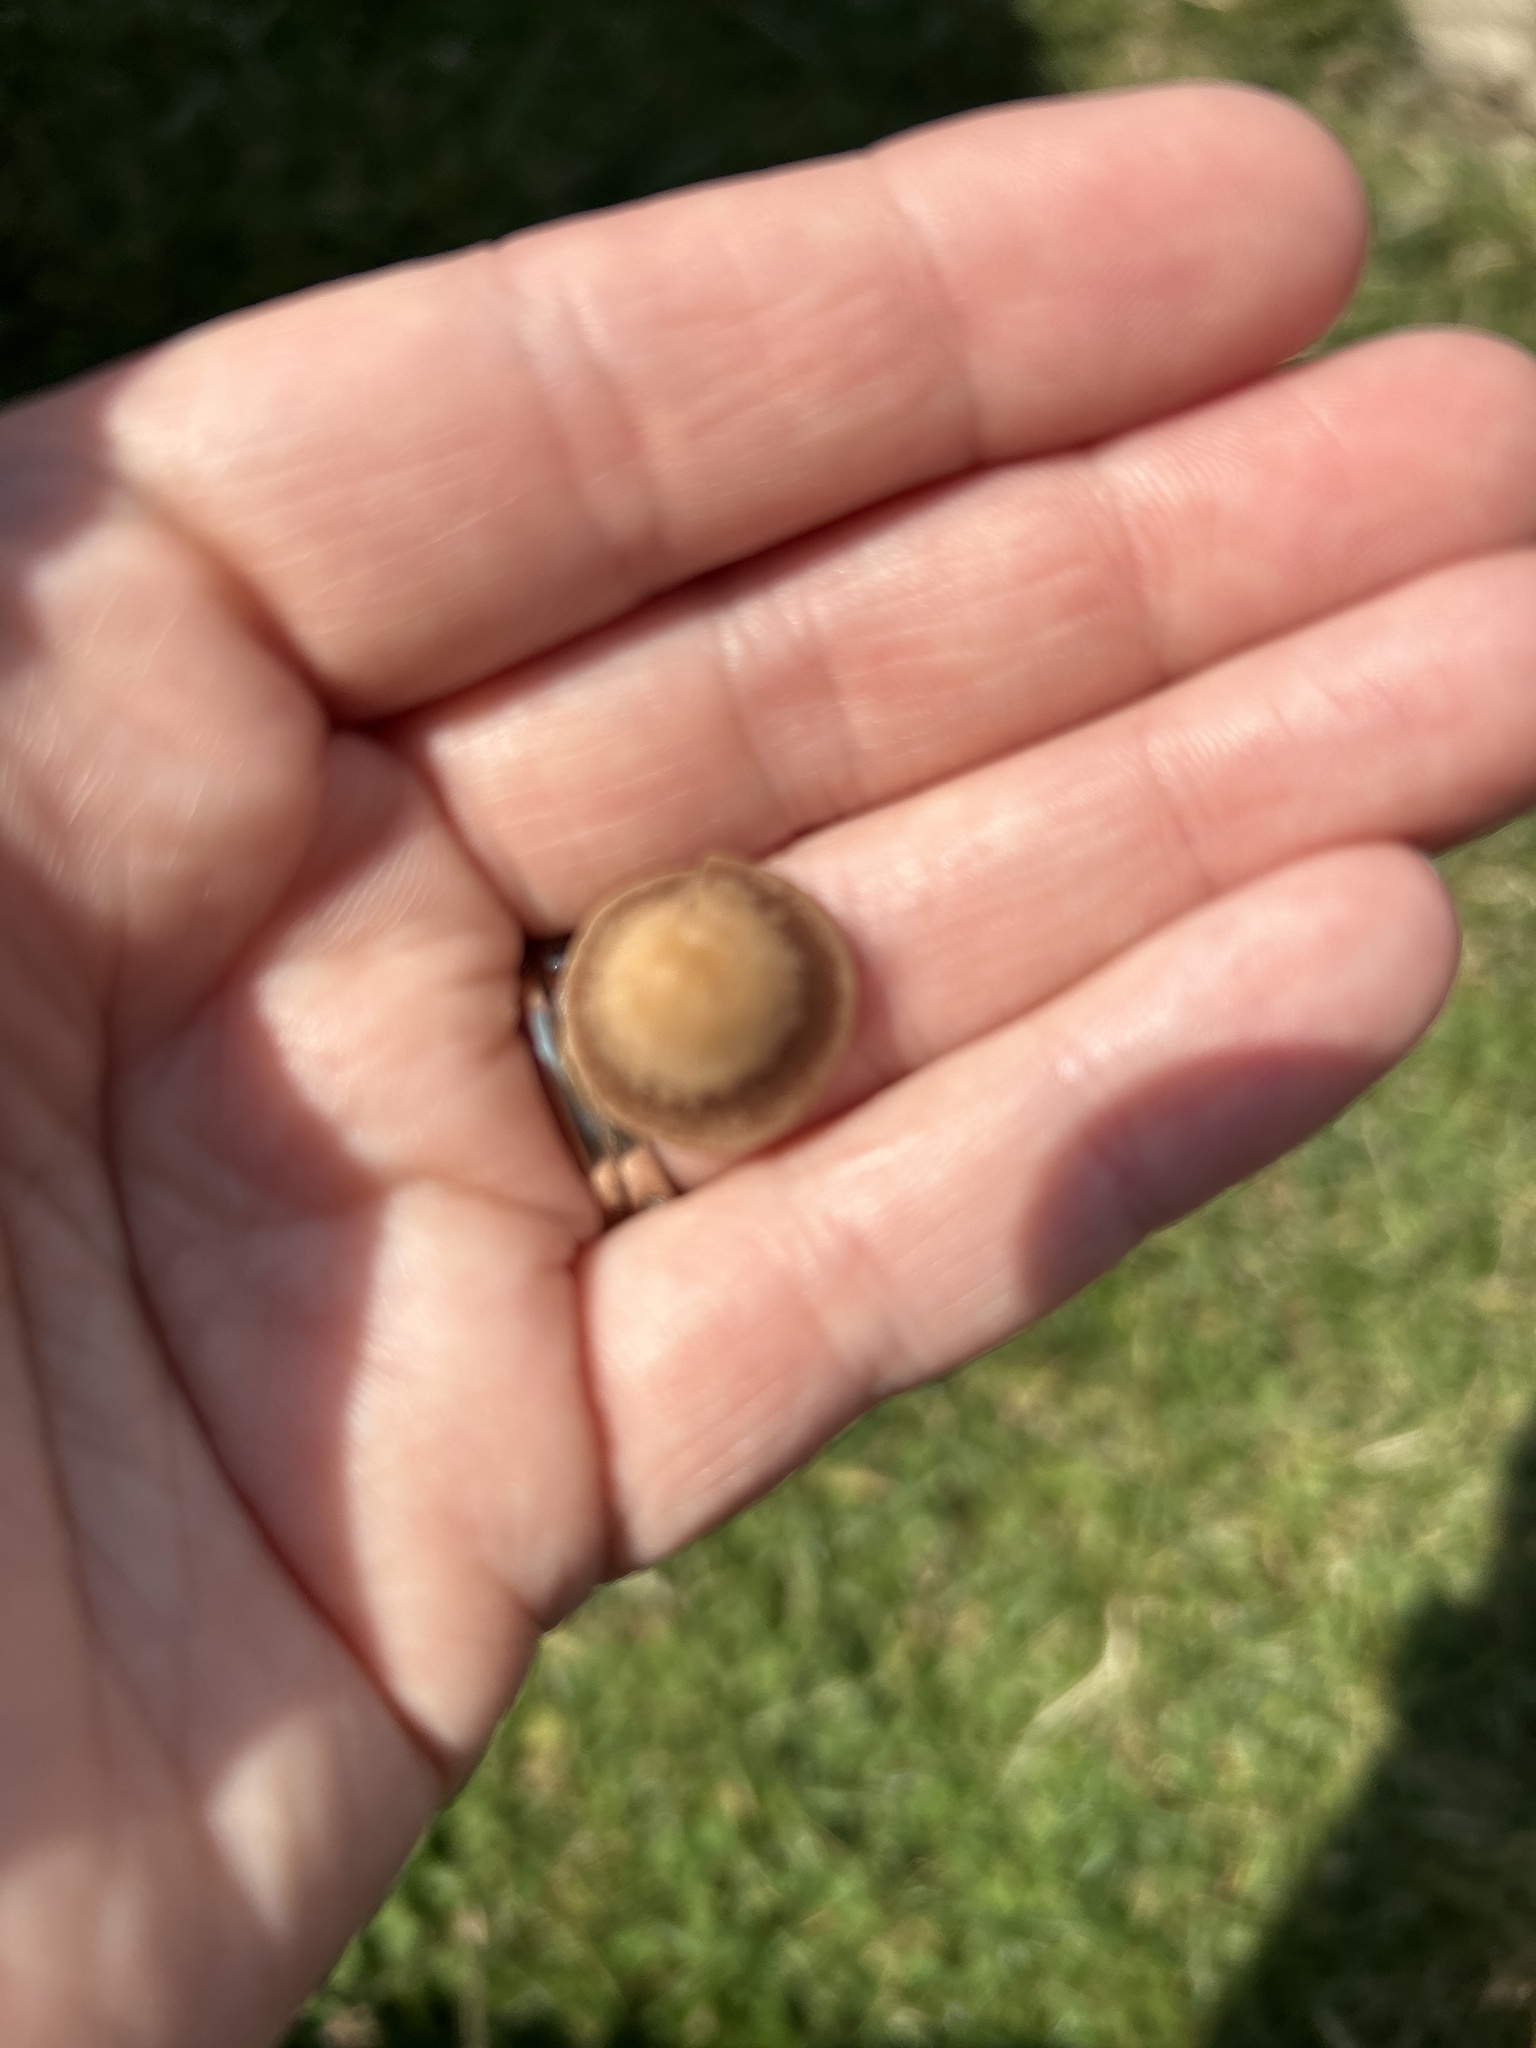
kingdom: Fungi
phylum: Basidiomycota
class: Agaricomycetes
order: Agaricales
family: Bolbitiaceae
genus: Panaeolina
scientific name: Panaeolina foenisecii
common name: Brown hay cap
